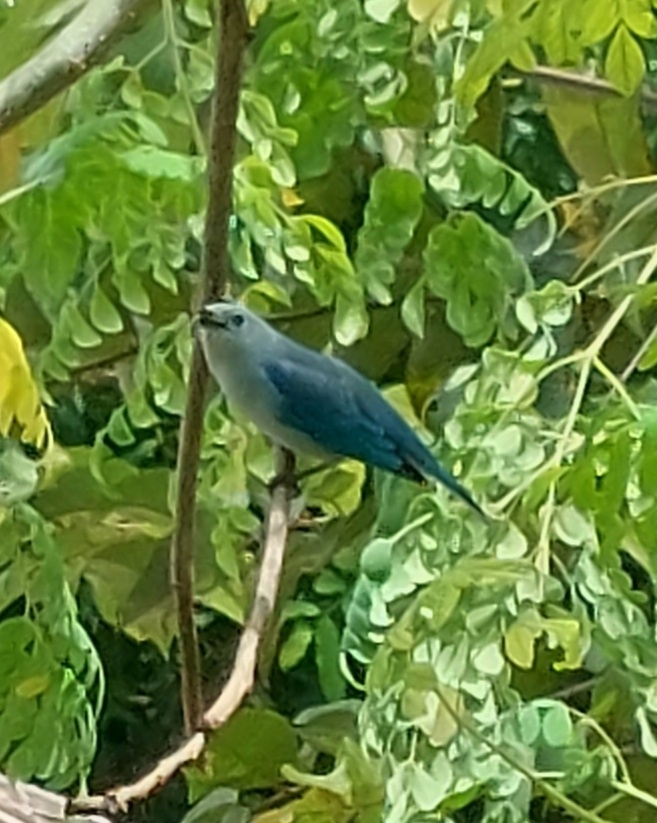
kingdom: Animalia
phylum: Chordata
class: Aves
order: Passeriformes
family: Thraupidae
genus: Thraupis
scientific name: Thraupis episcopus
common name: Blue-grey tanager
